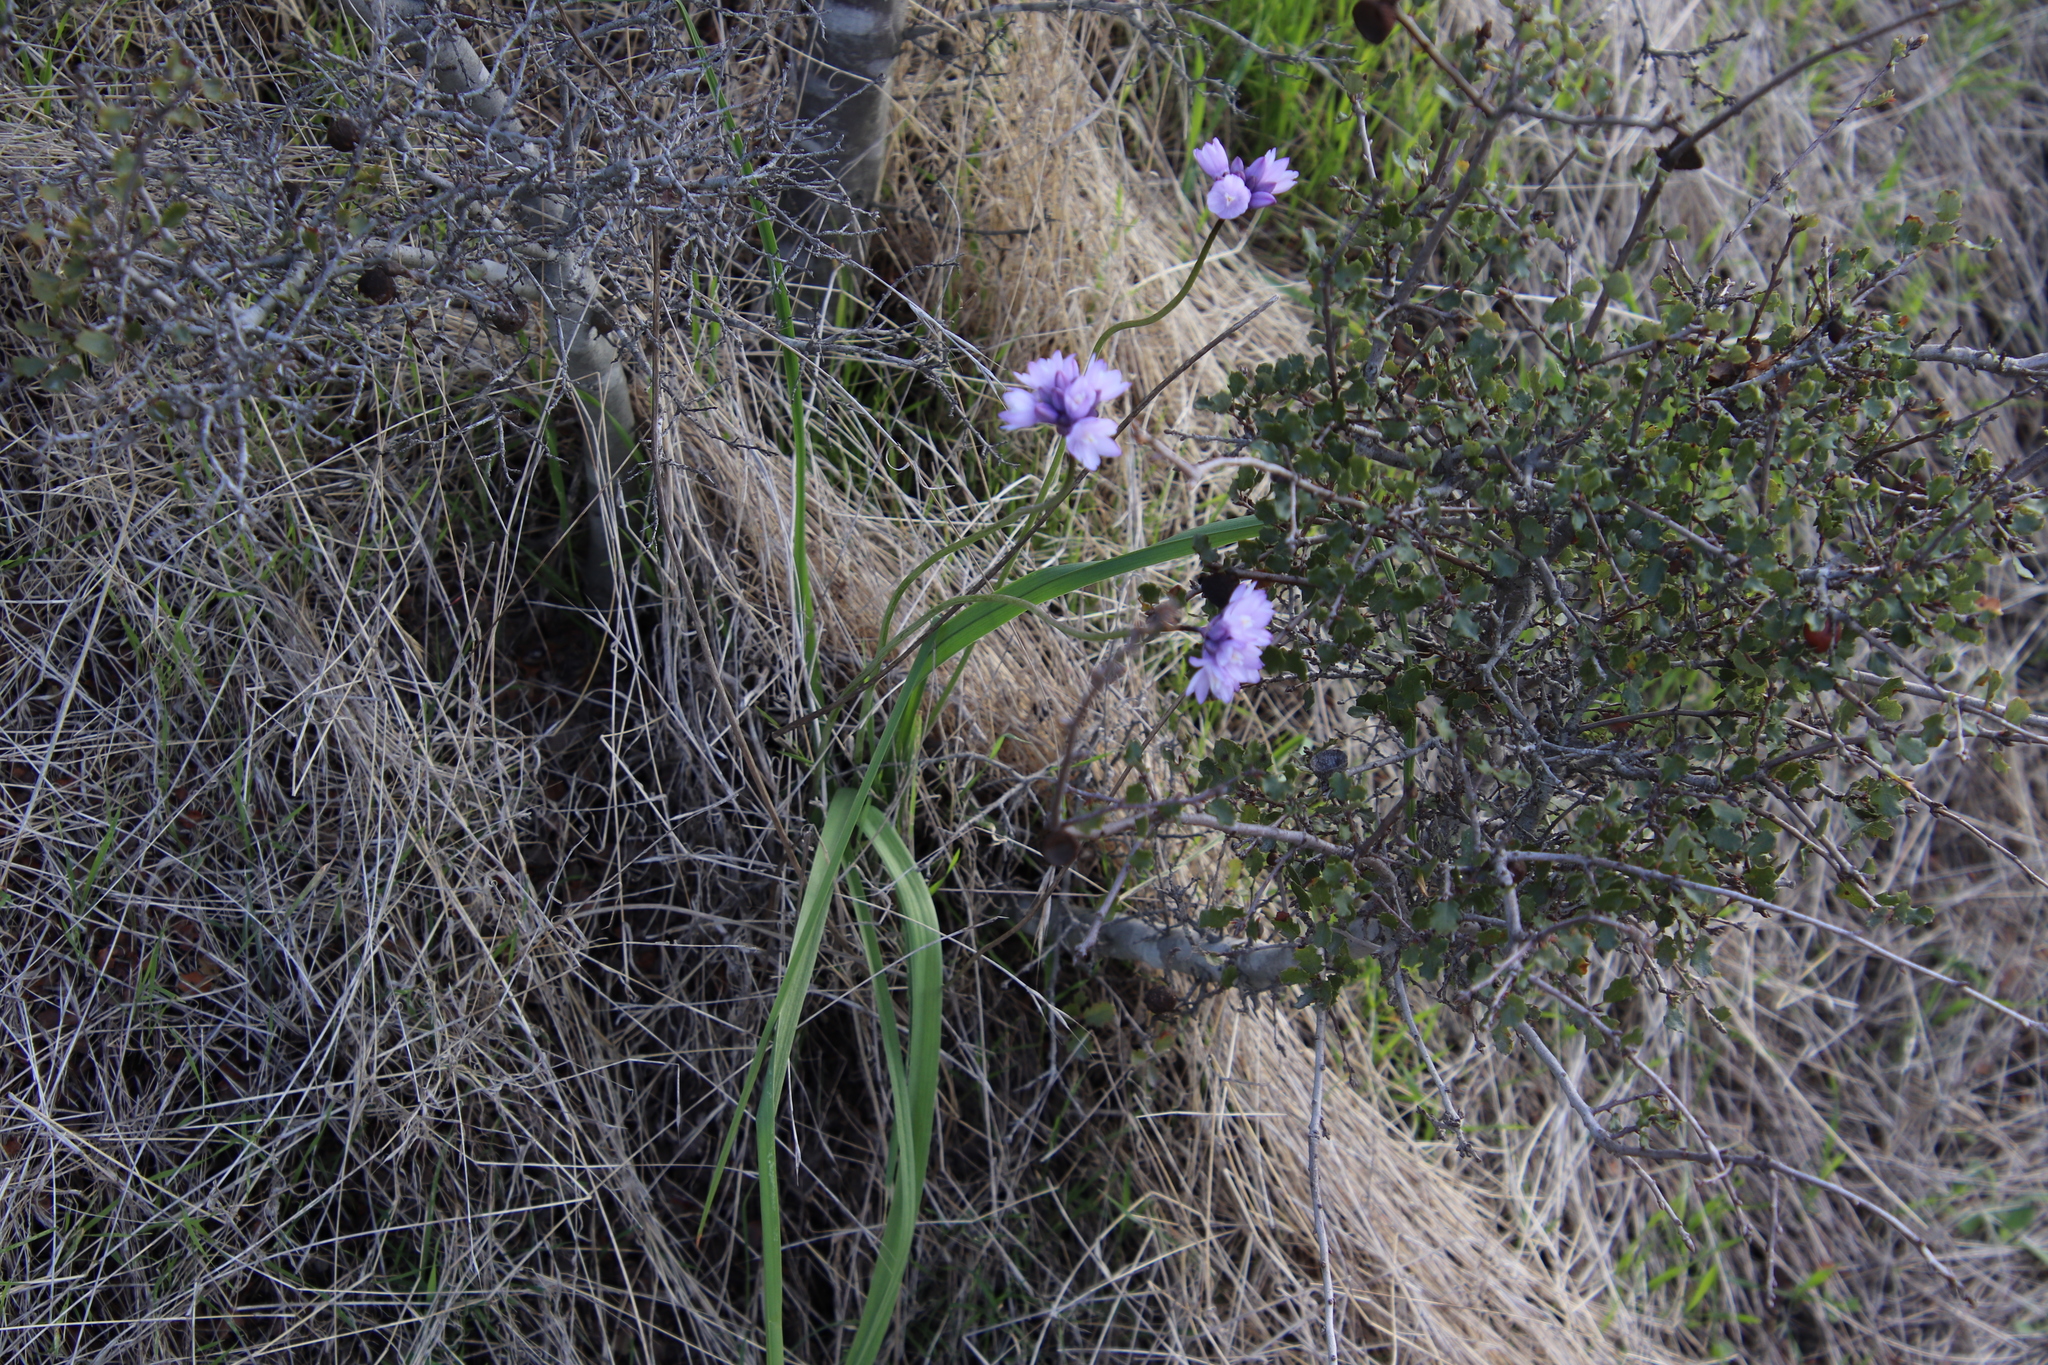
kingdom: Plantae
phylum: Tracheophyta
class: Liliopsida
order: Asparagales
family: Asparagaceae
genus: Dipterostemon
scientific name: Dipterostemon capitatus
